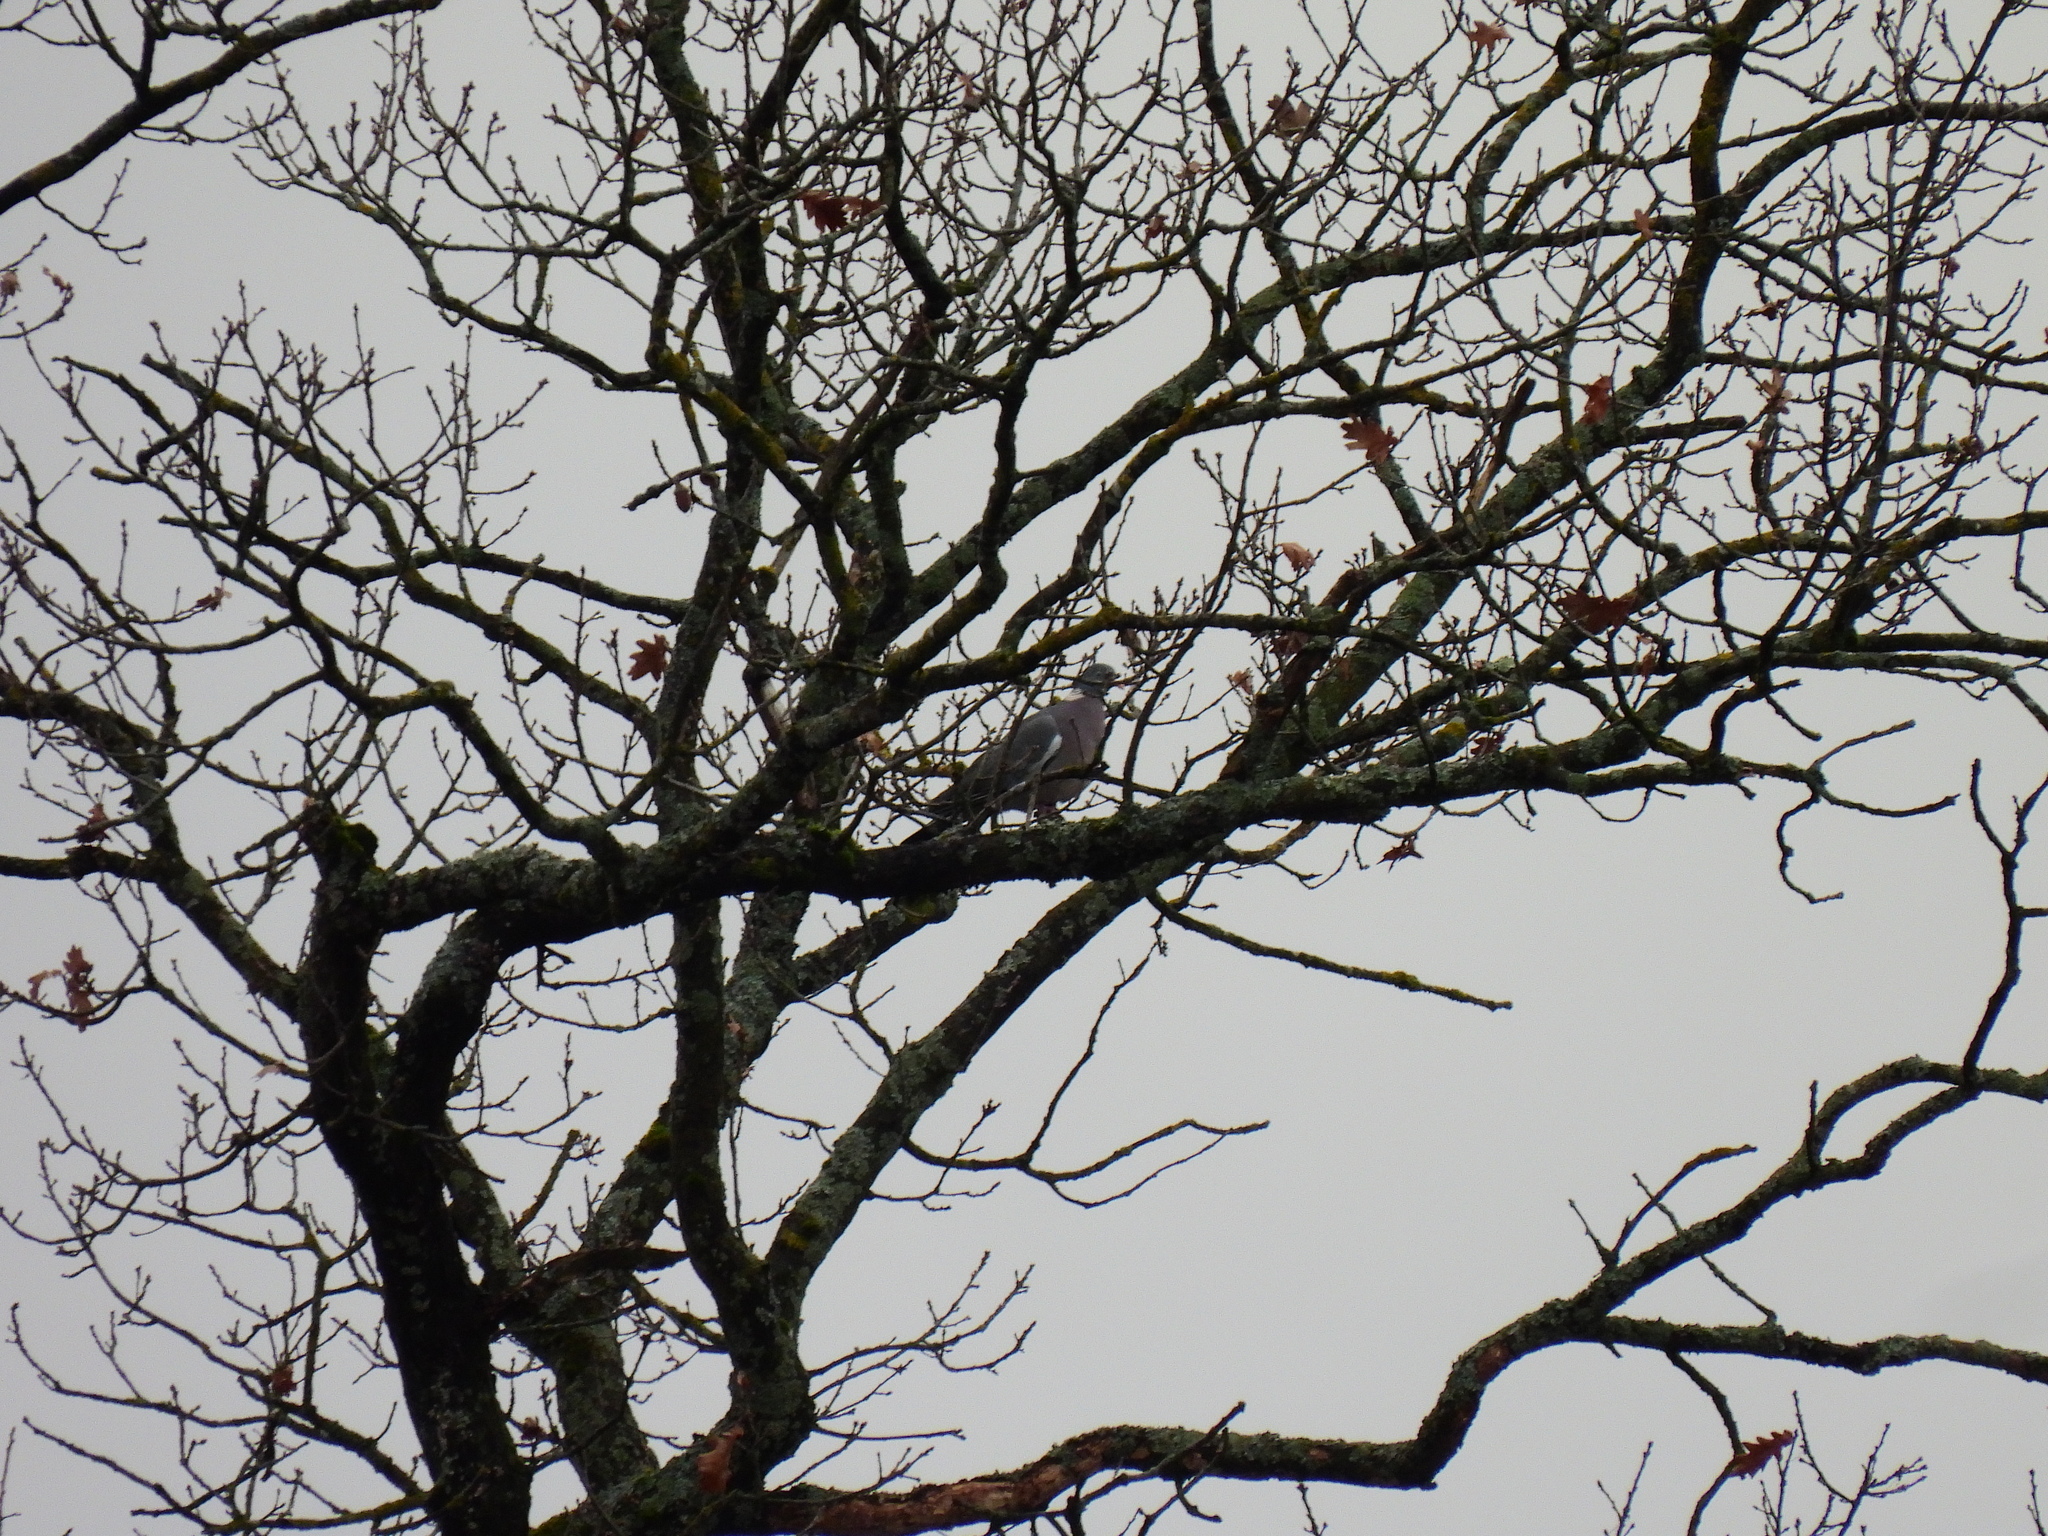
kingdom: Animalia
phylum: Chordata
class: Aves
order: Columbiformes
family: Columbidae
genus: Columba
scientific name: Columba palumbus
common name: Common wood pigeon
